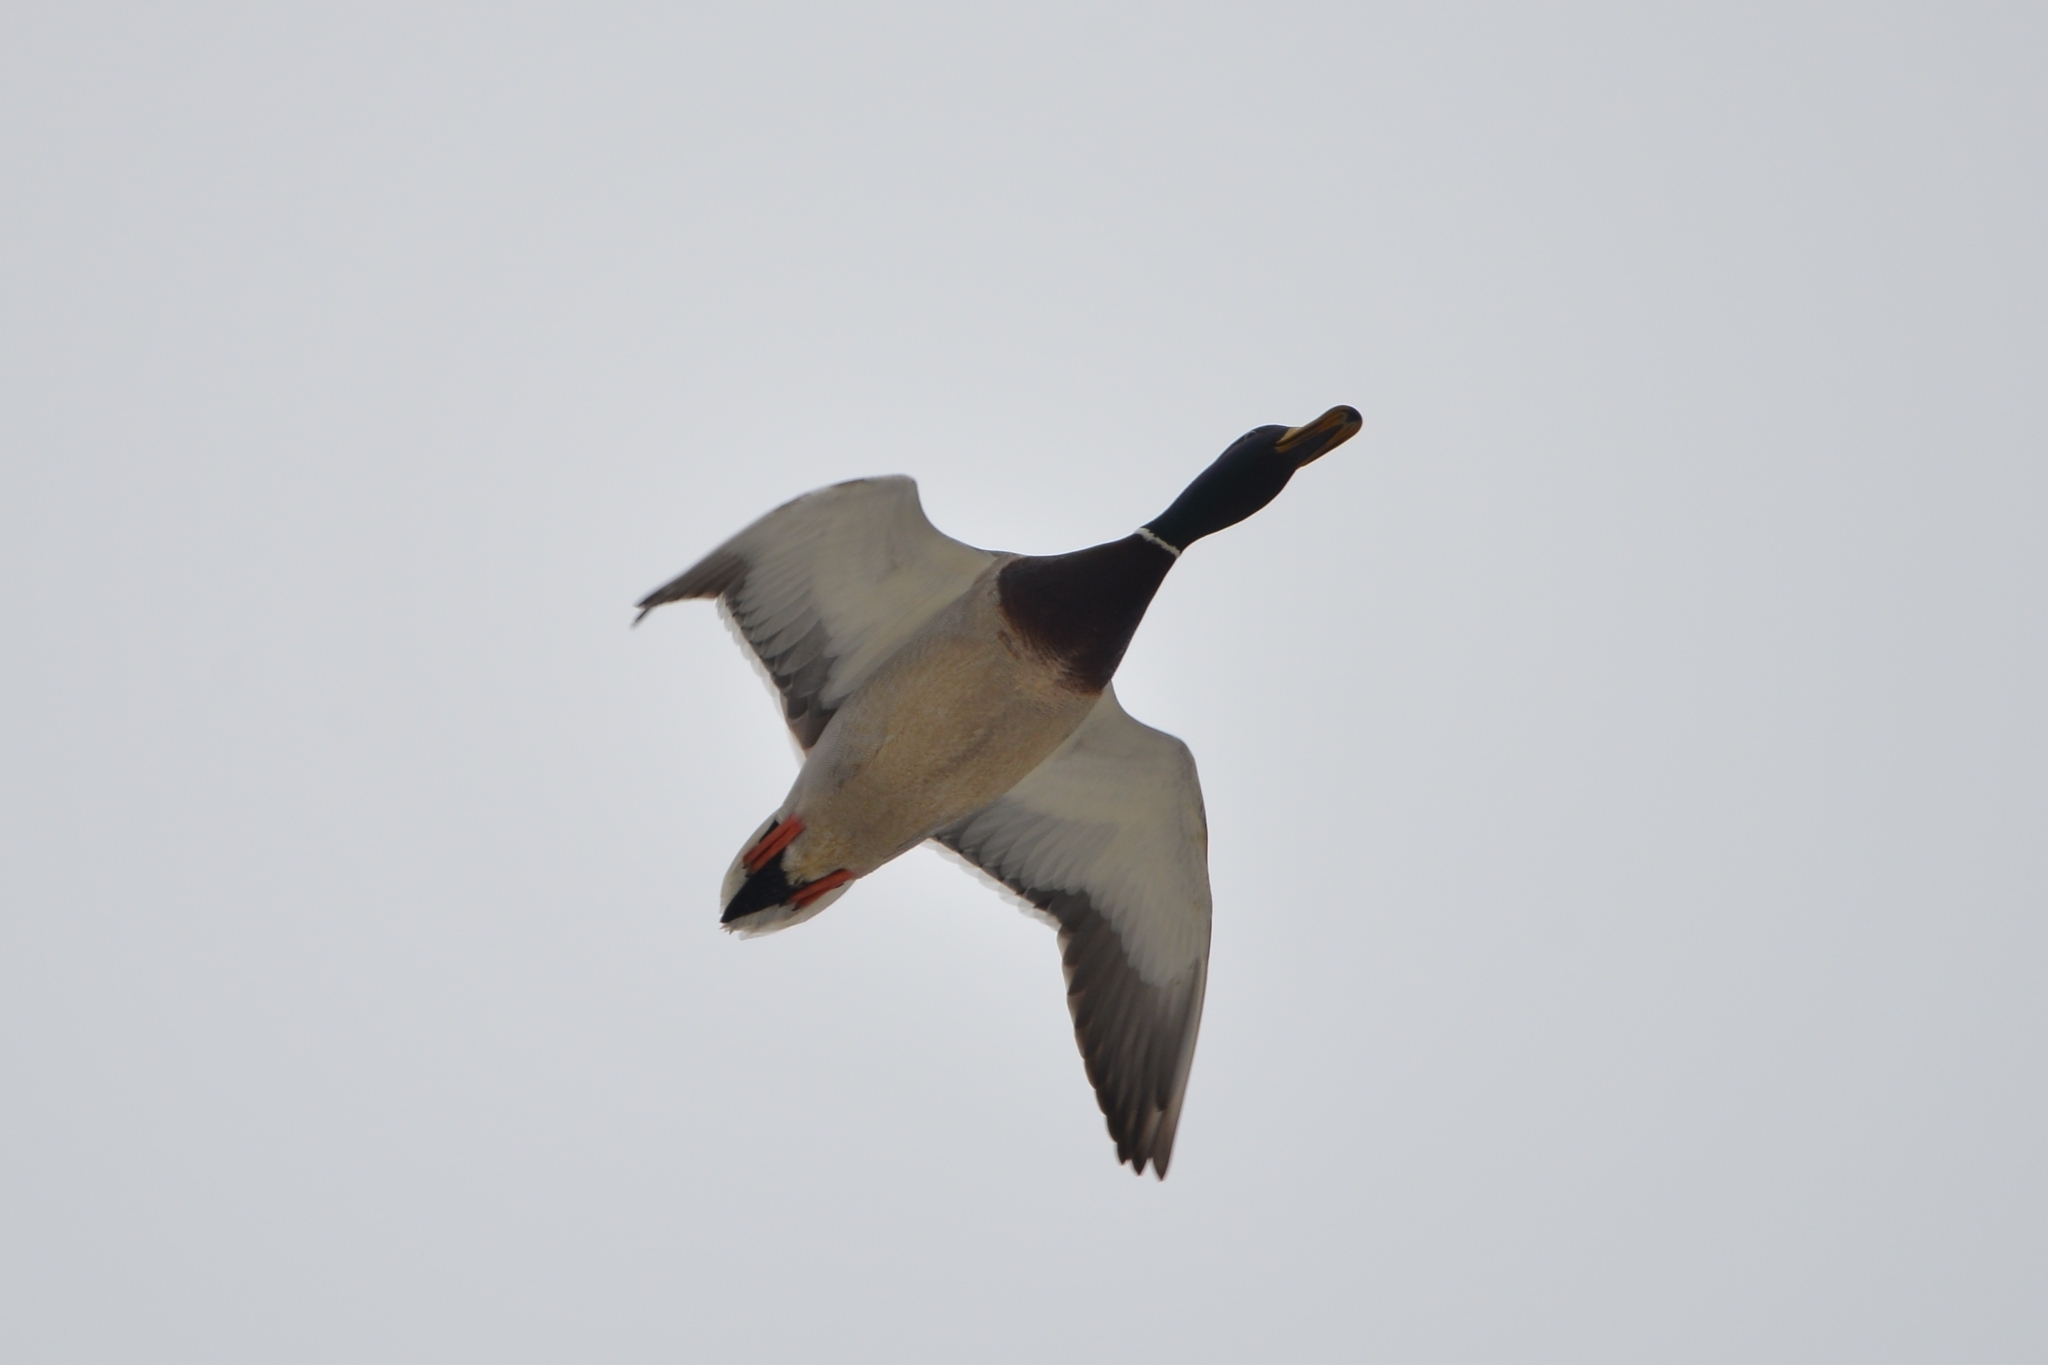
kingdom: Animalia
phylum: Chordata
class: Aves
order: Anseriformes
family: Anatidae
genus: Anas
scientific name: Anas platyrhynchos
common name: Mallard
